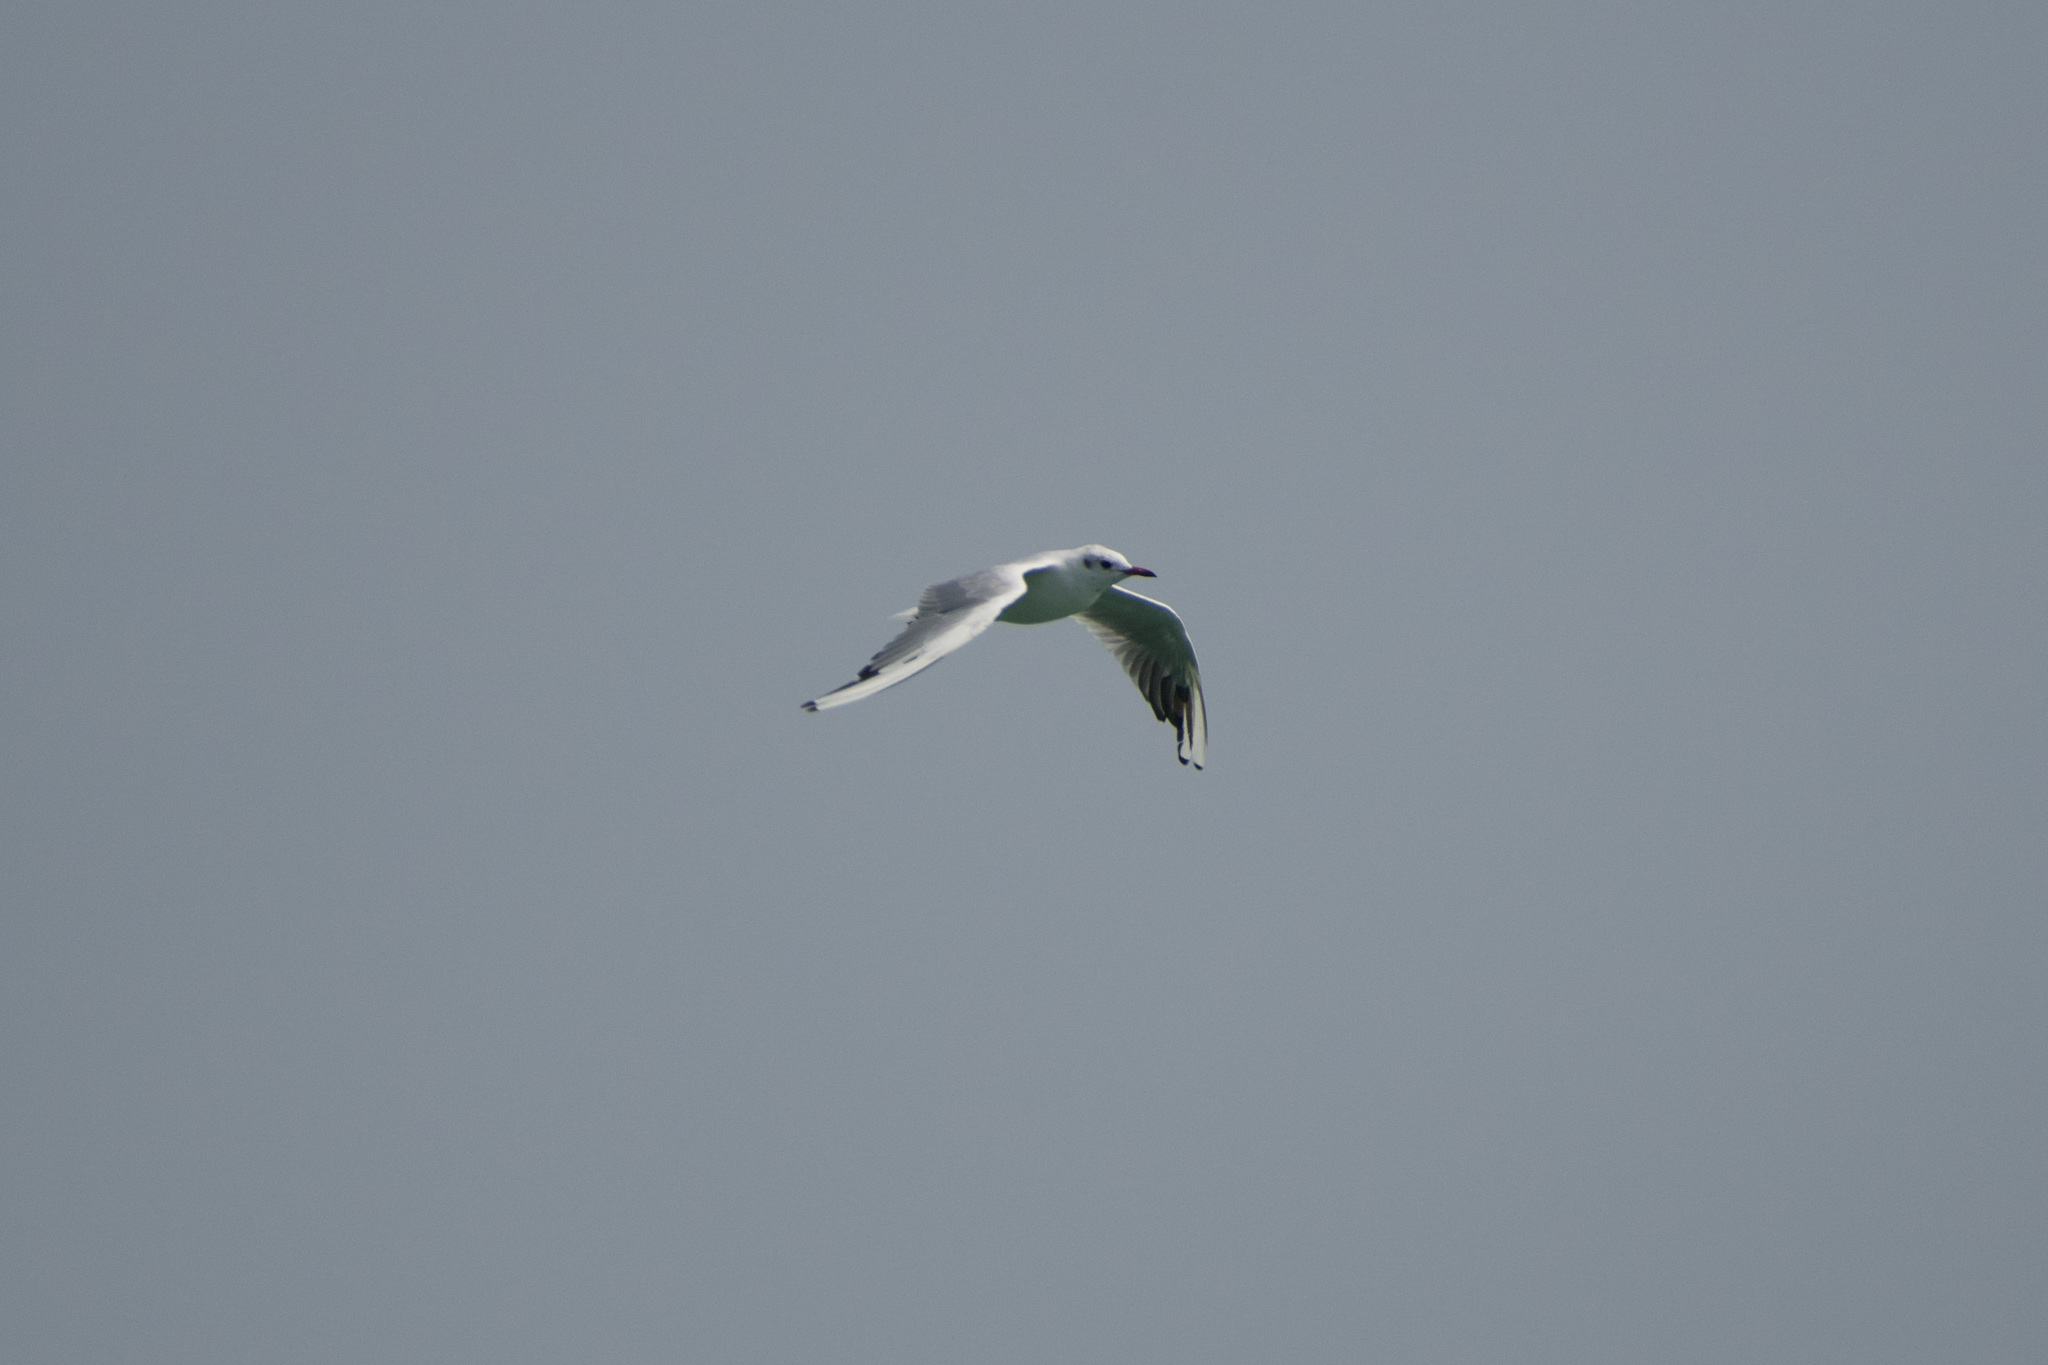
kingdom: Animalia
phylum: Chordata
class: Aves
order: Charadriiformes
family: Laridae
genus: Chroicocephalus
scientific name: Chroicocephalus ridibundus
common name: Black-headed gull
